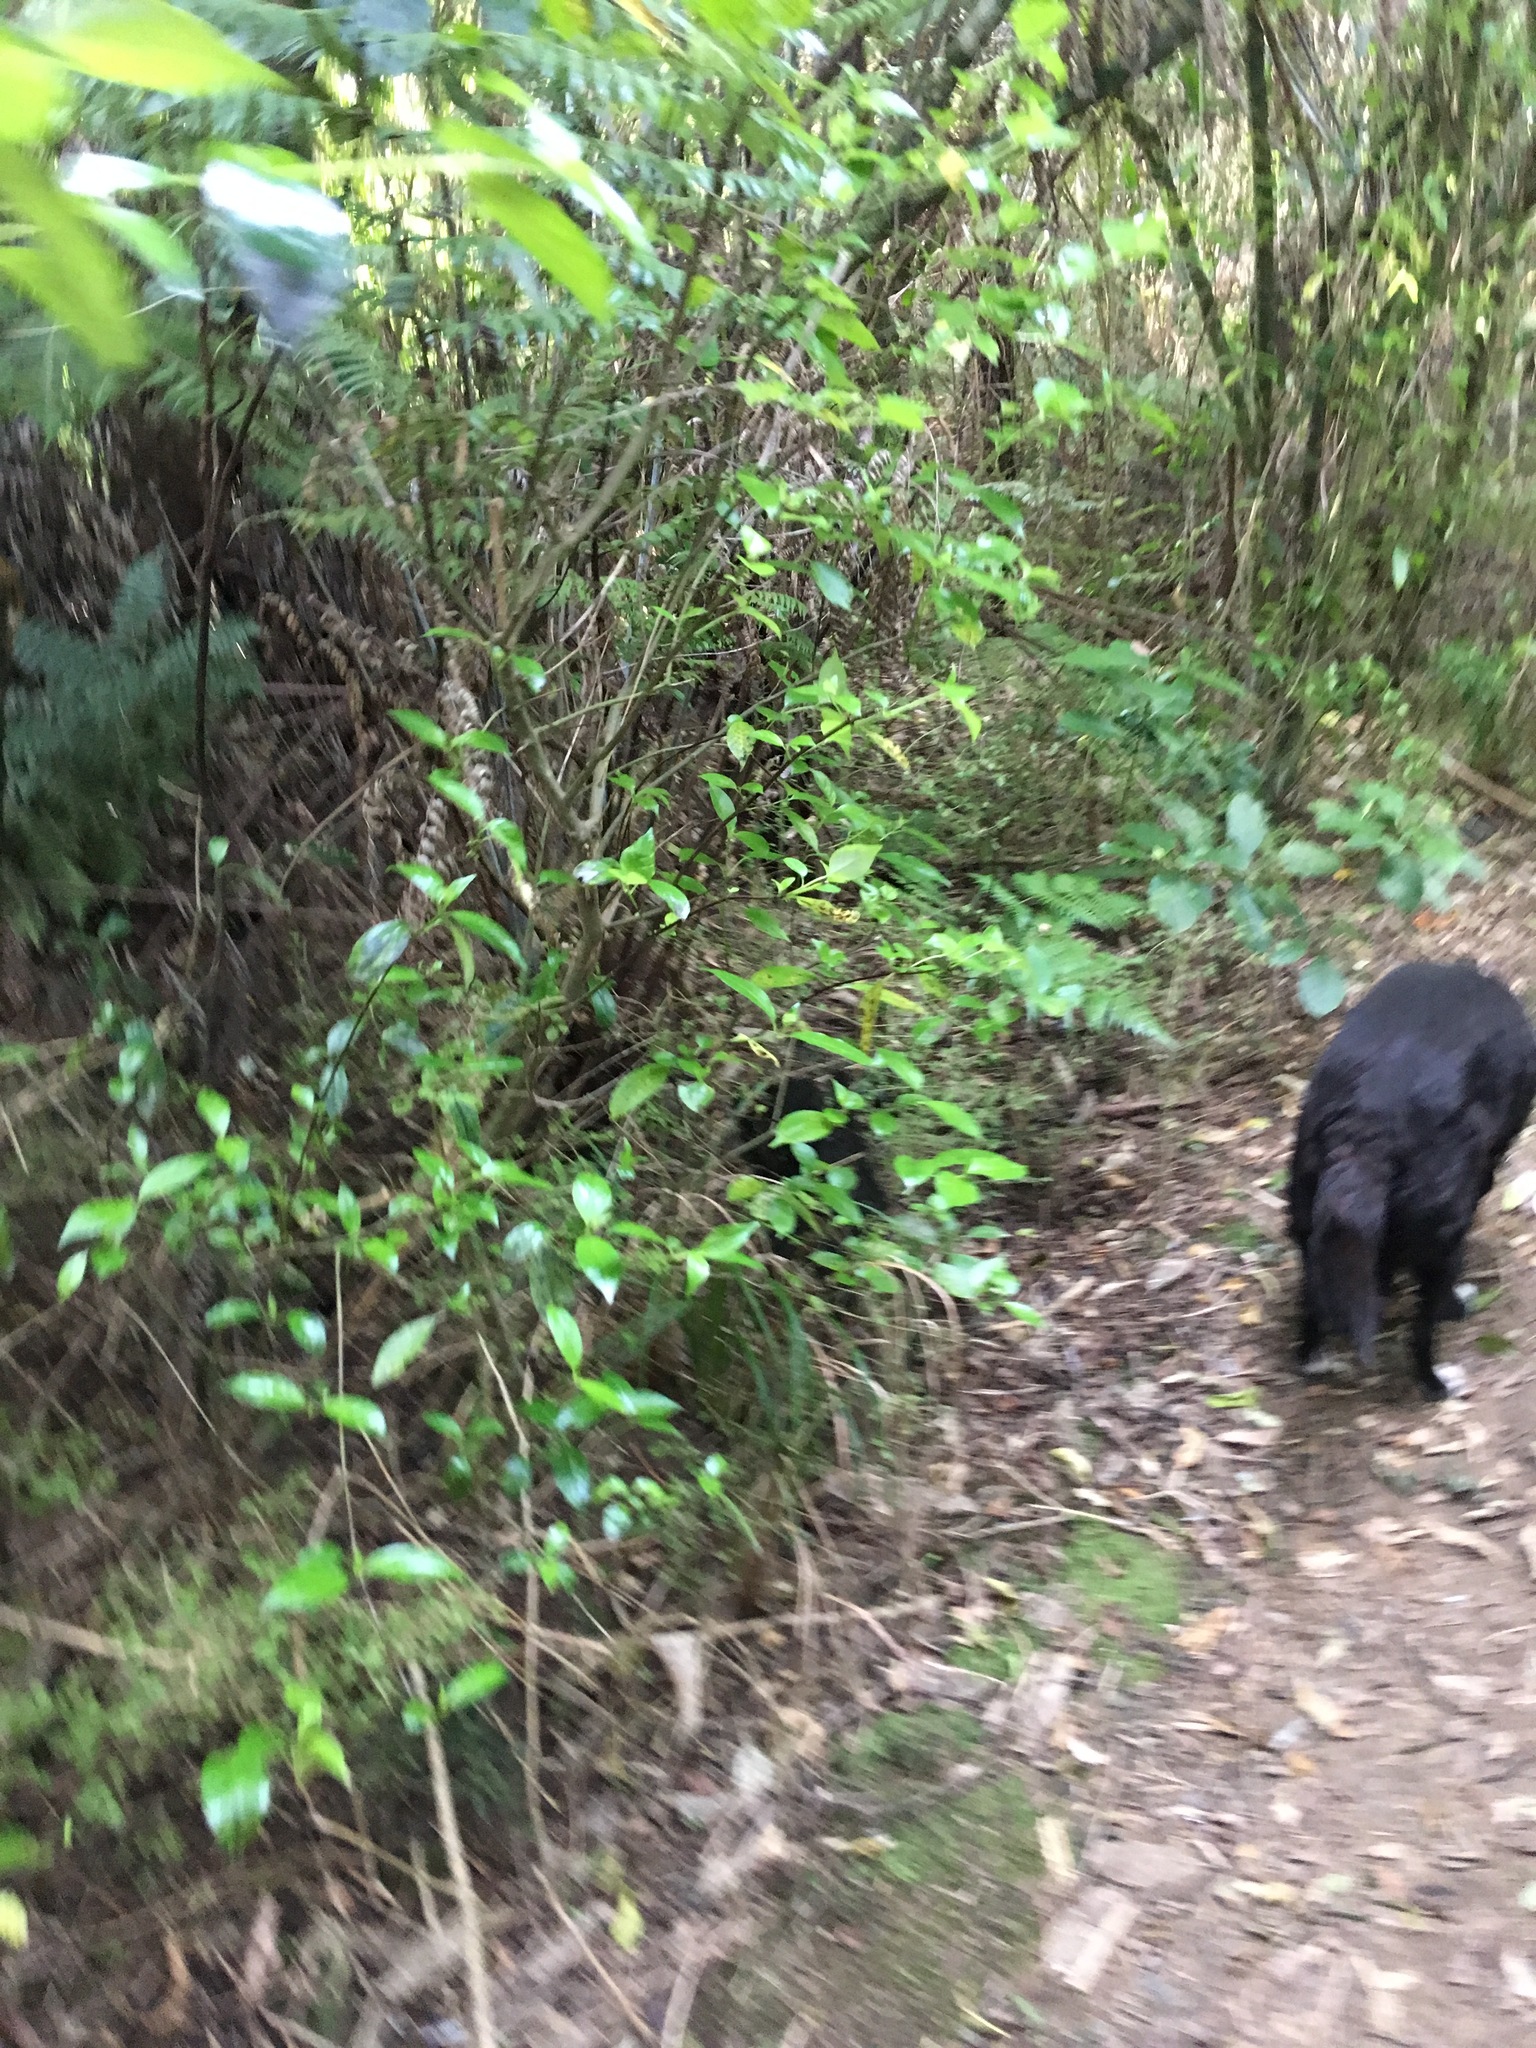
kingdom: Plantae
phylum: Tracheophyta
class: Magnoliopsida
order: Gentianales
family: Loganiaceae
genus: Geniostoma
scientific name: Geniostoma ligustrifolium
